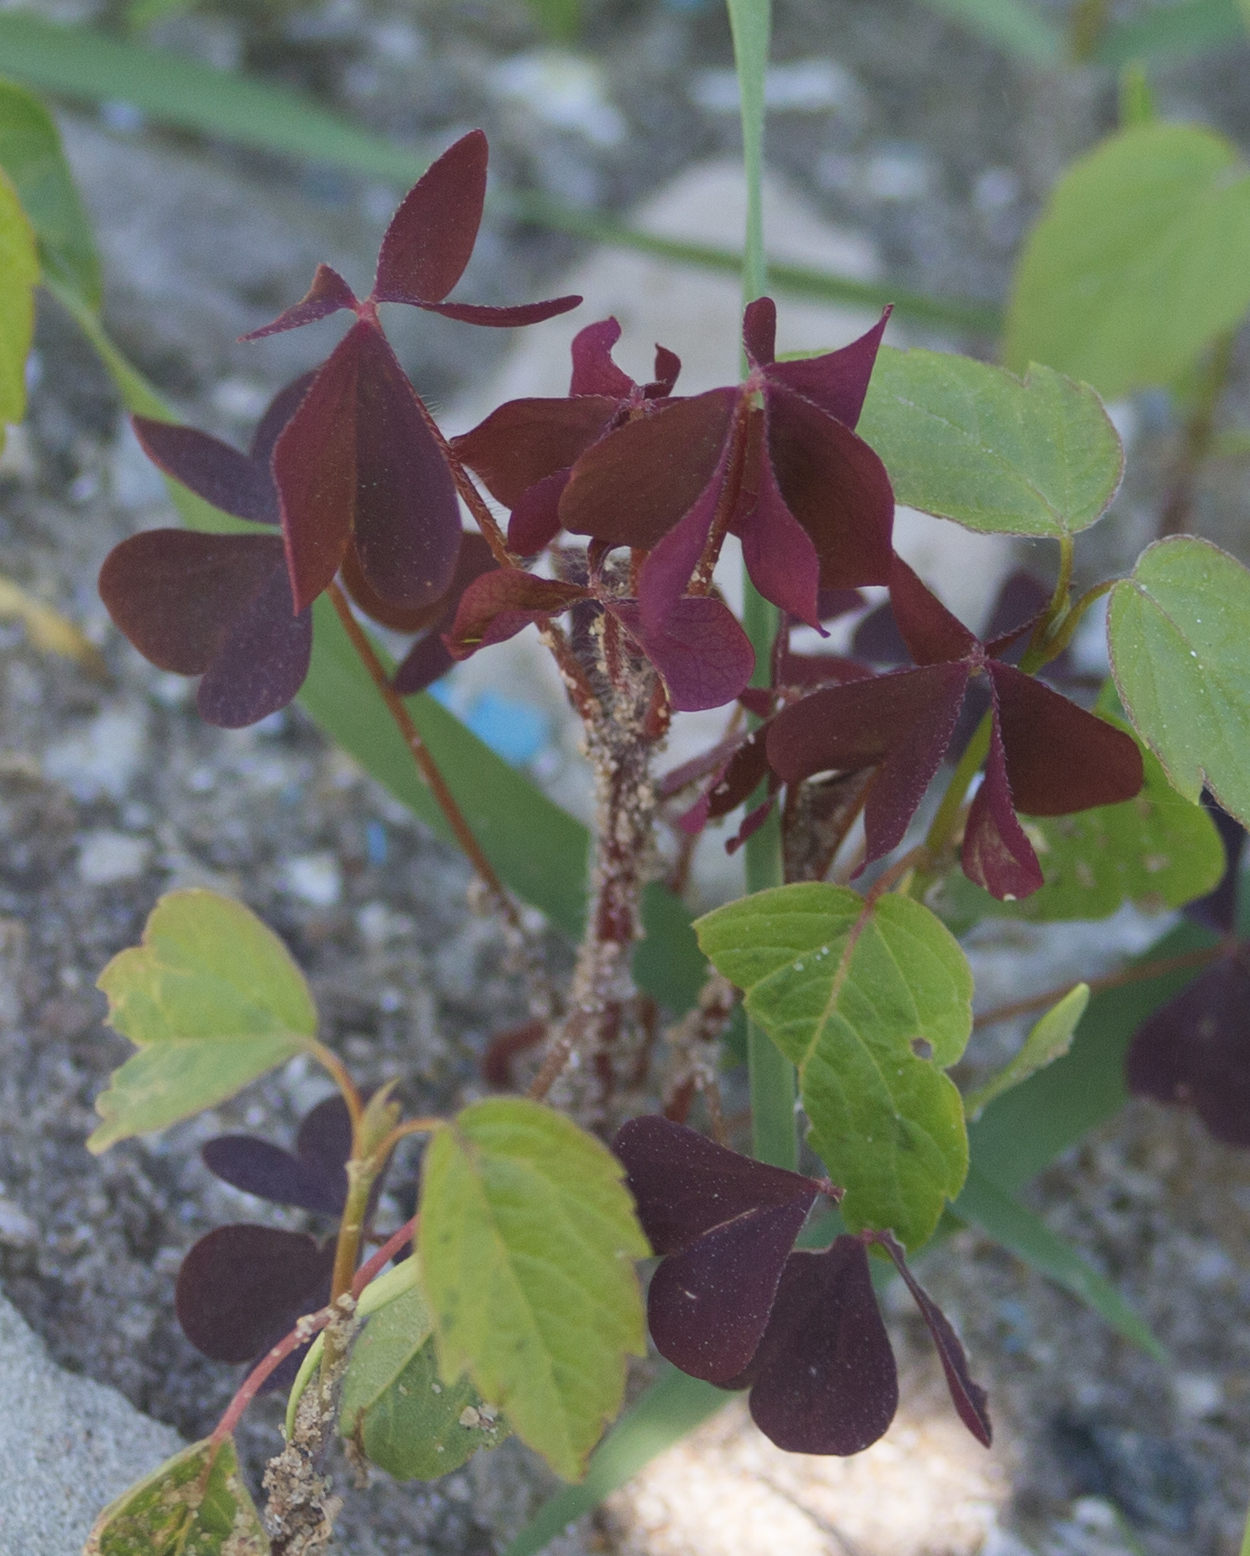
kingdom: Plantae
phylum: Tracheophyta
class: Magnoliopsida
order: Oxalidales
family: Oxalidaceae
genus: Oxalis
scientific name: Oxalis stricta
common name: Upright yellow-sorrel
